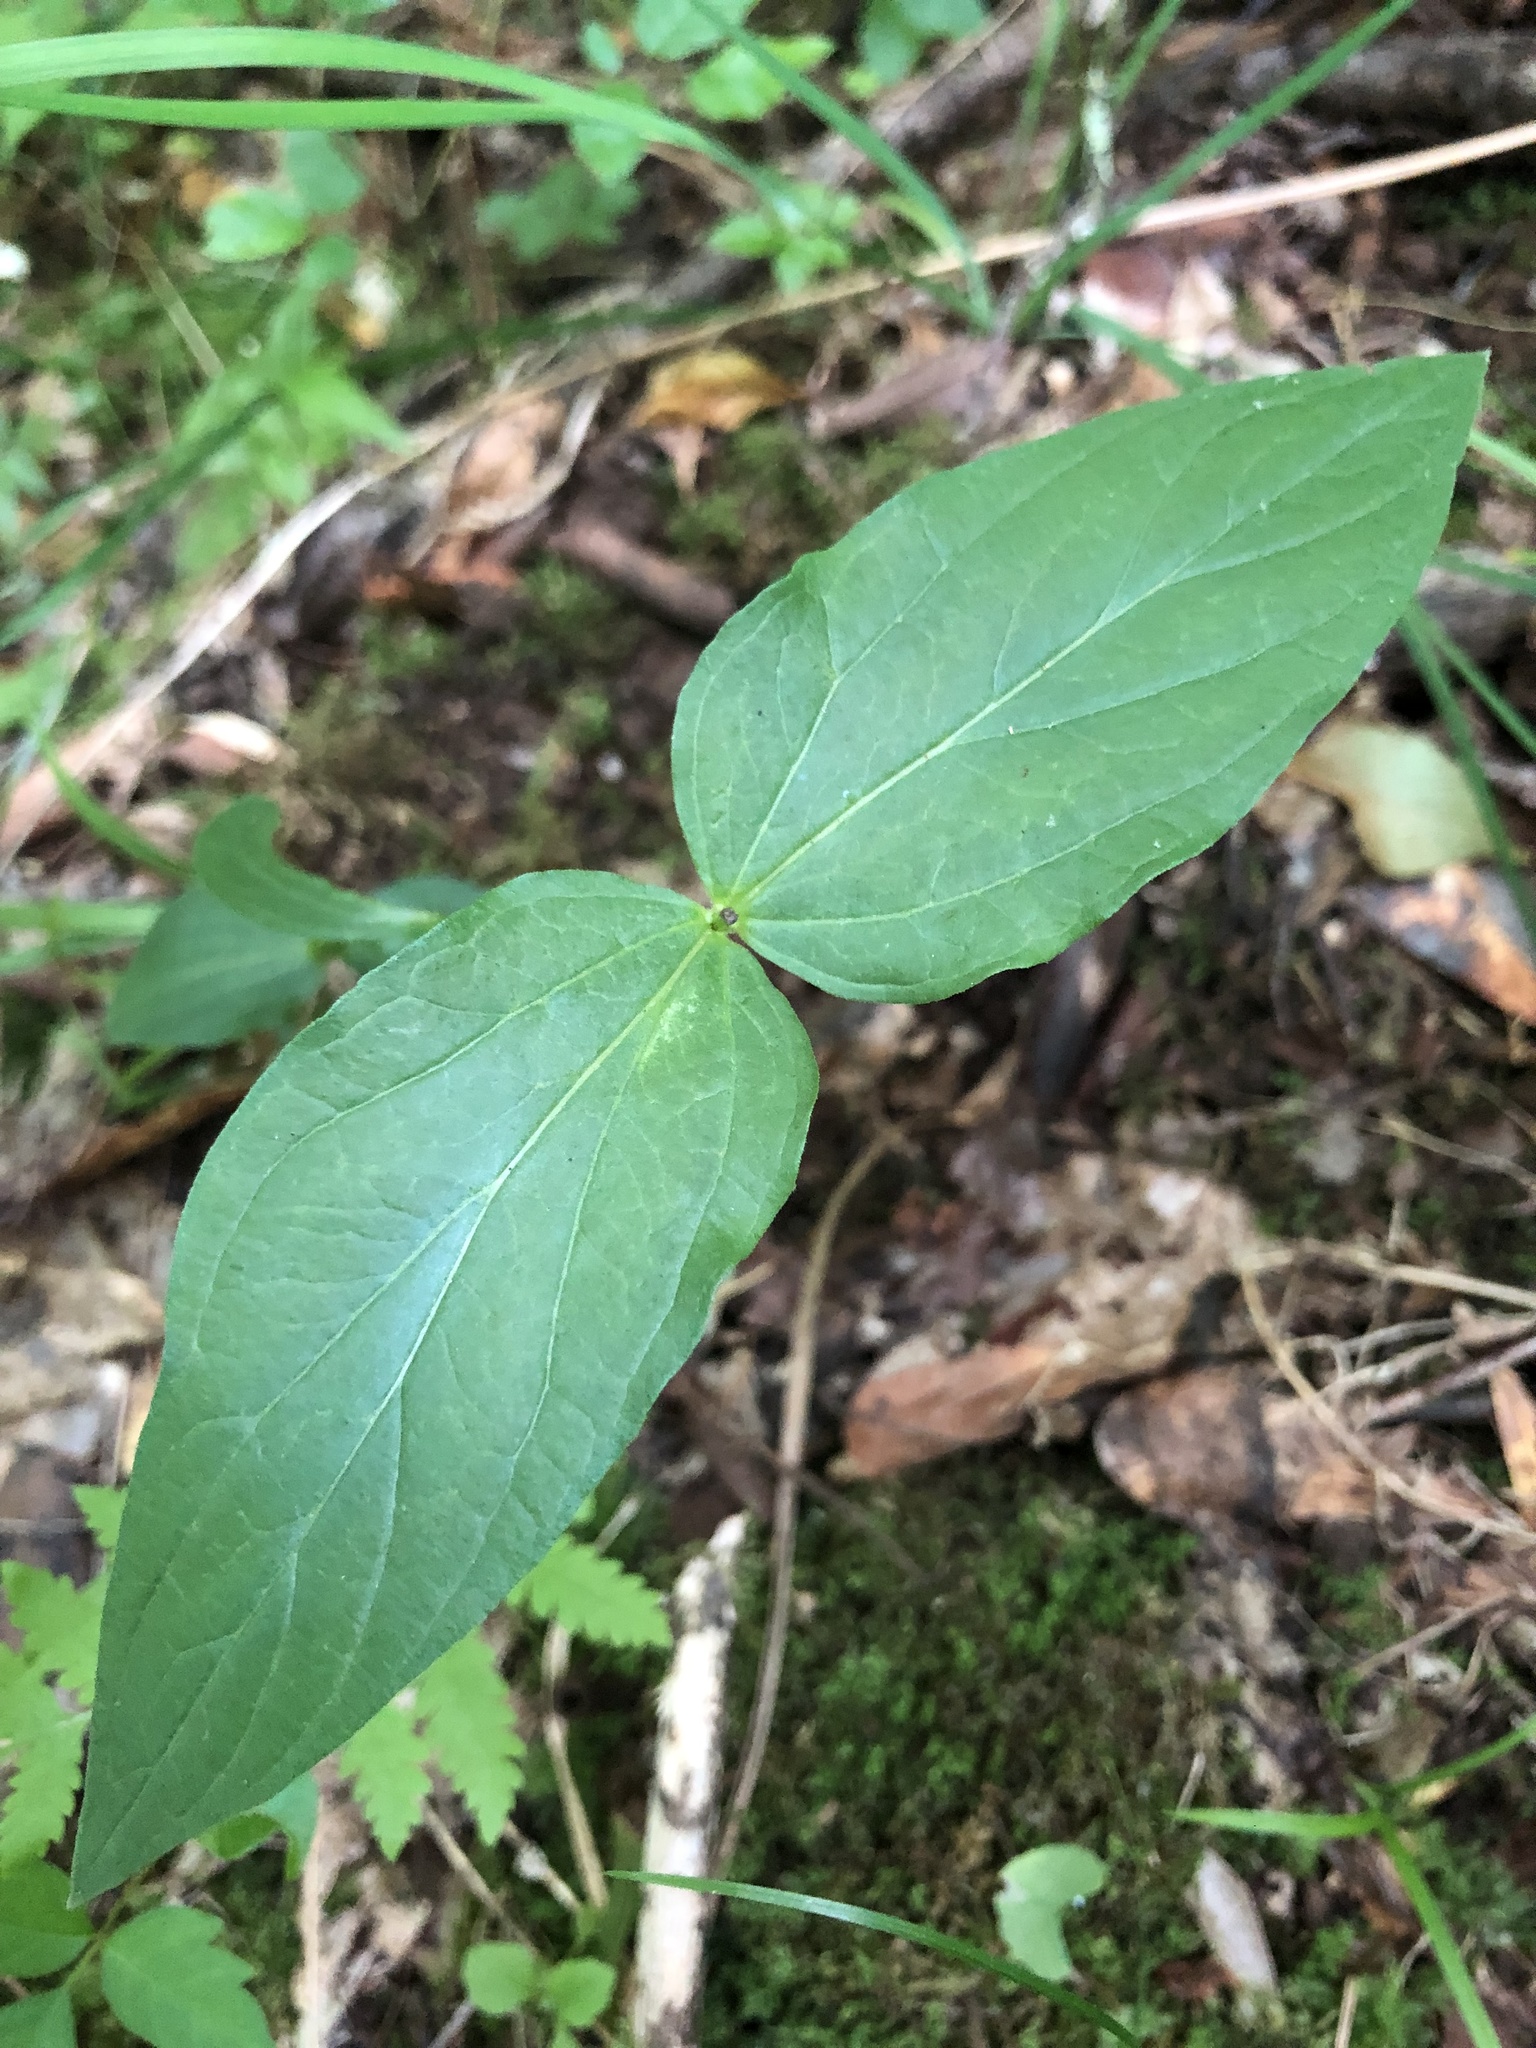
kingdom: Plantae
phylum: Tracheophyta
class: Magnoliopsida
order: Gentianales
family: Loganiaceae
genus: Spigelia
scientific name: Spigelia marilandica
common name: Indian-pink
